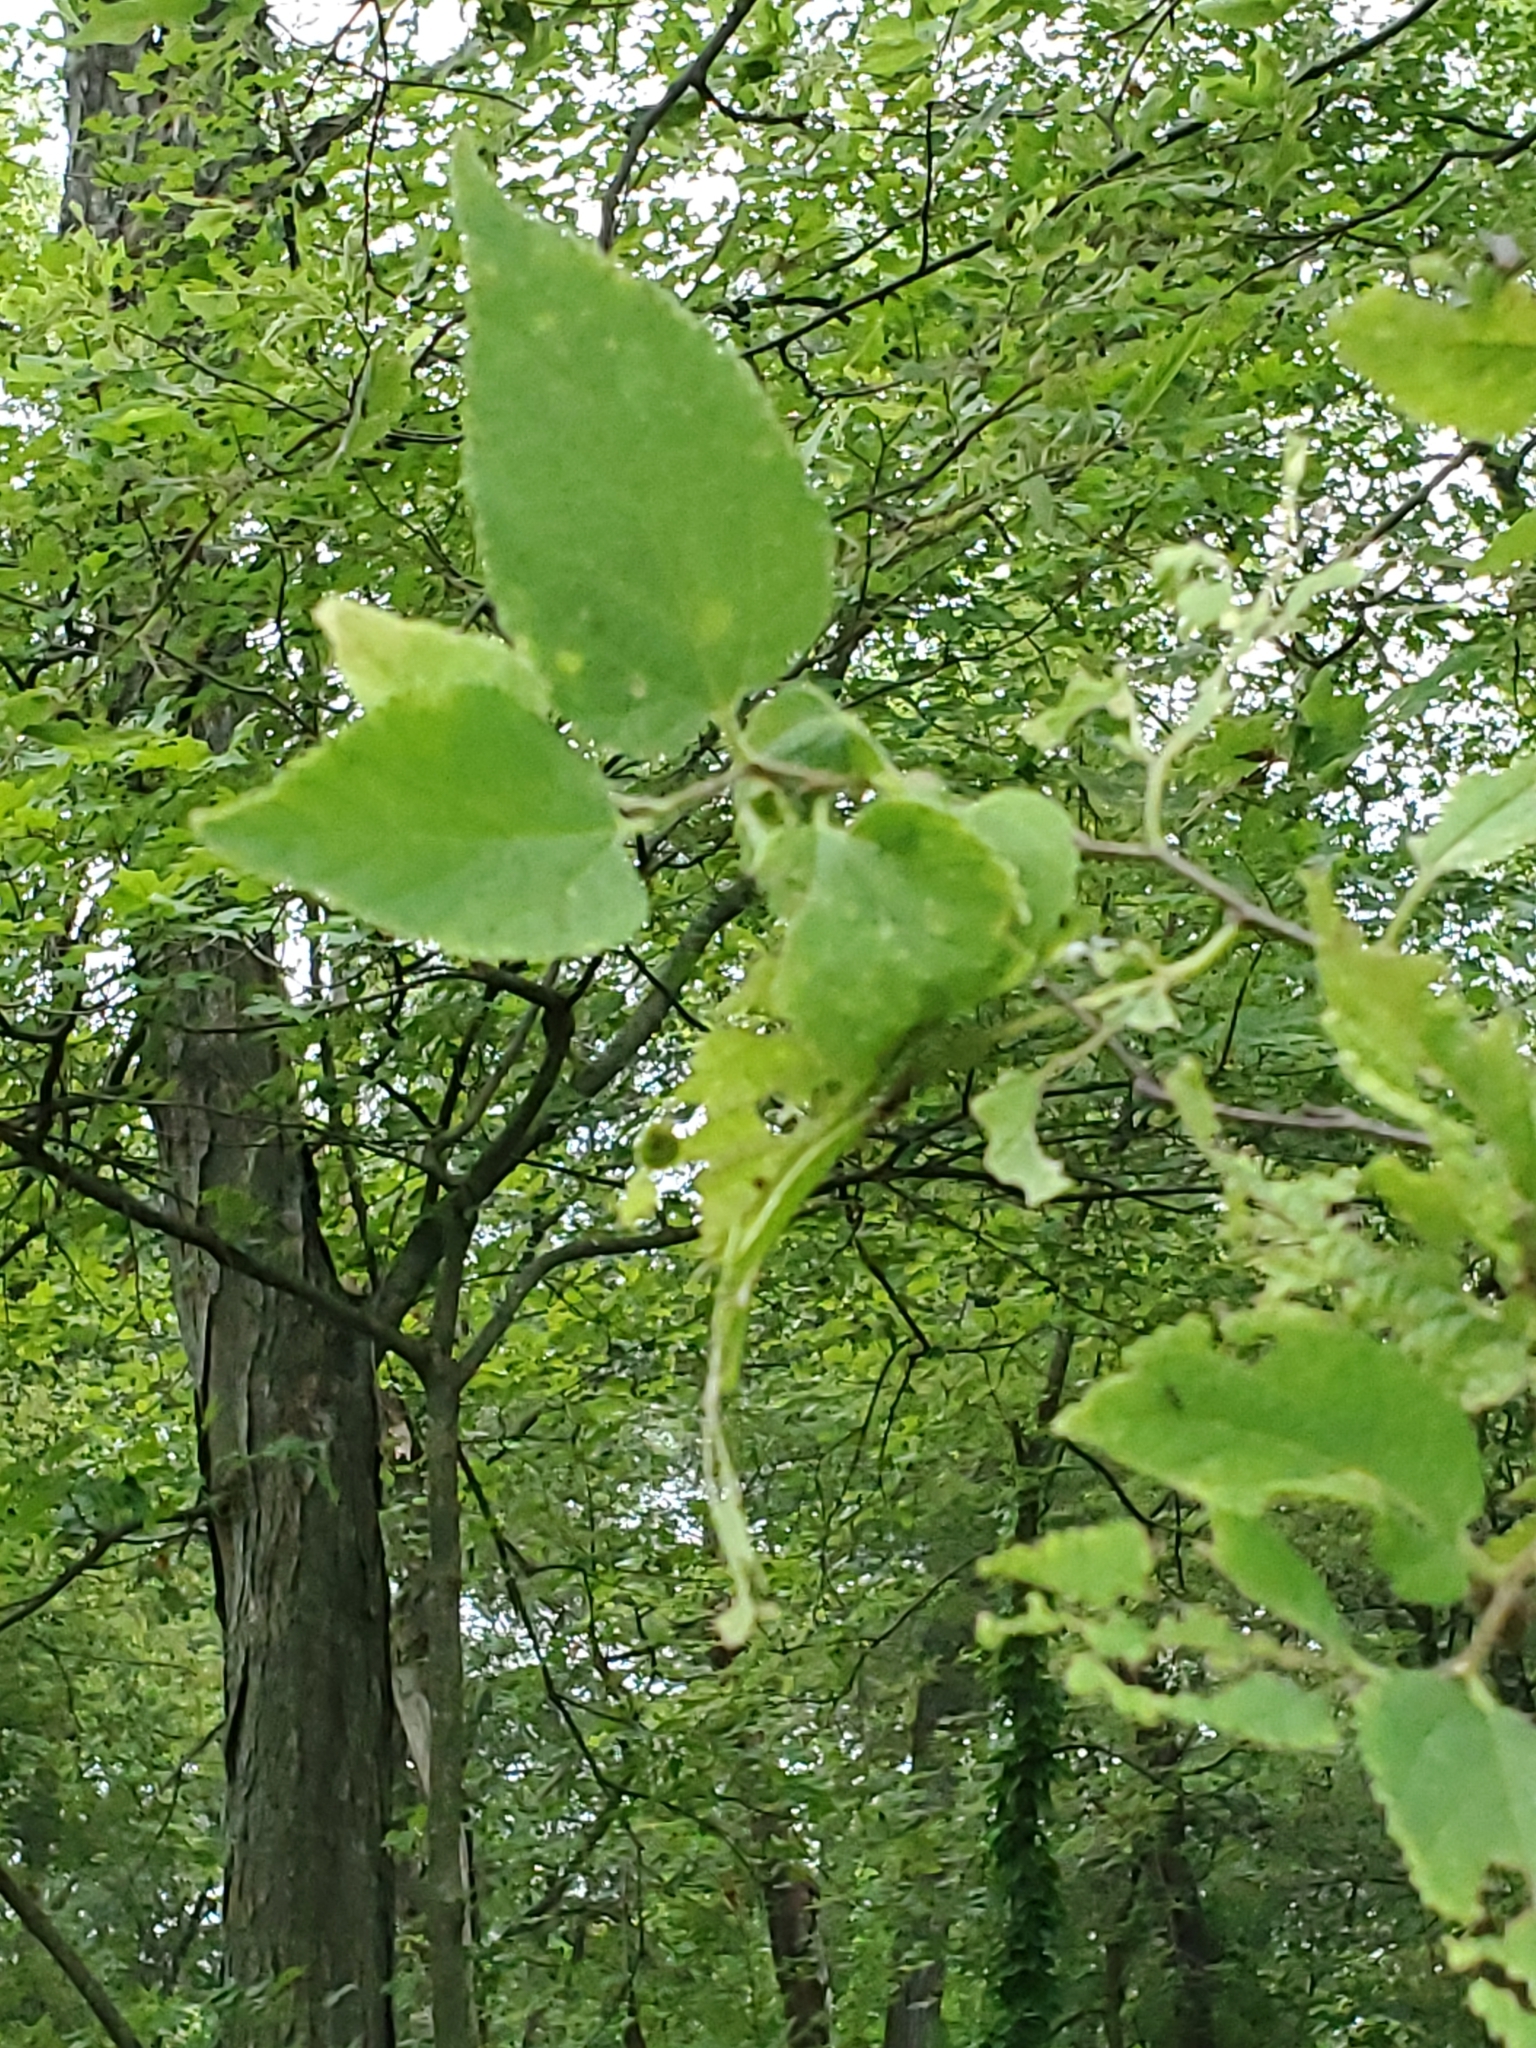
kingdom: Plantae
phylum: Tracheophyta
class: Magnoliopsida
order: Rosales
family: Cannabaceae
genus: Celtis
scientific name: Celtis occidentalis
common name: Common hackberry
